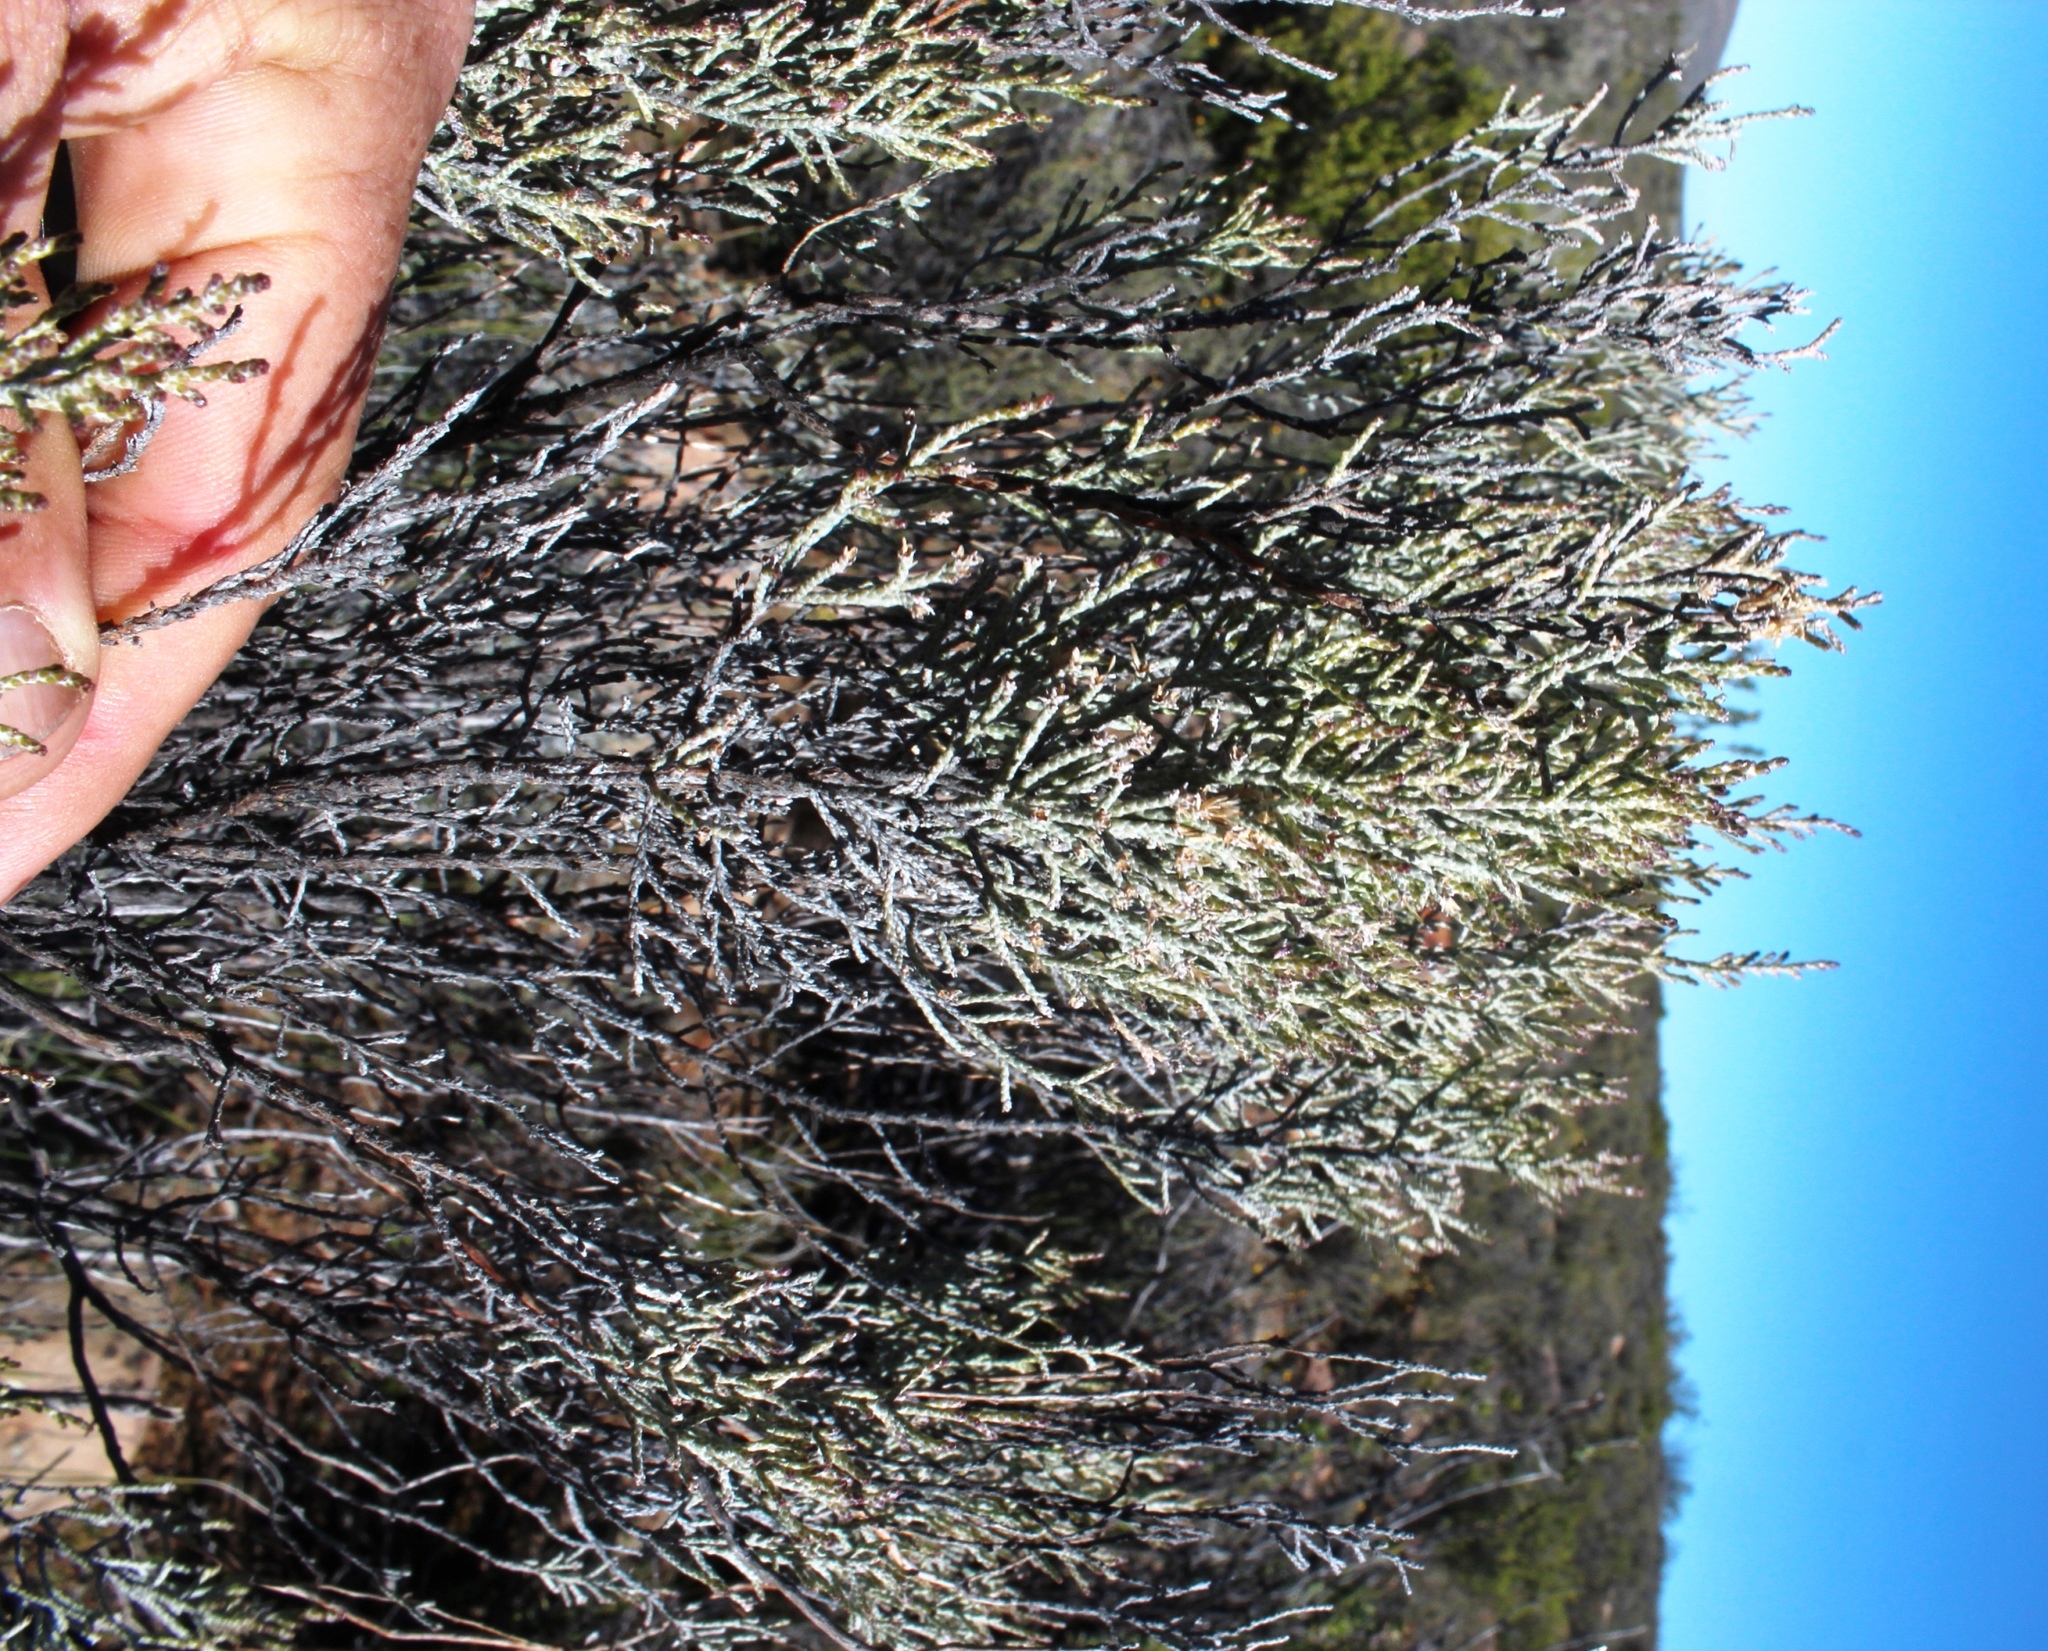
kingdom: Plantae
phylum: Tracheophyta
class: Magnoliopsida
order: Asterales
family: Asteraceae
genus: Dicerothamnus
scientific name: Dicerothamnus rhinocerotis
